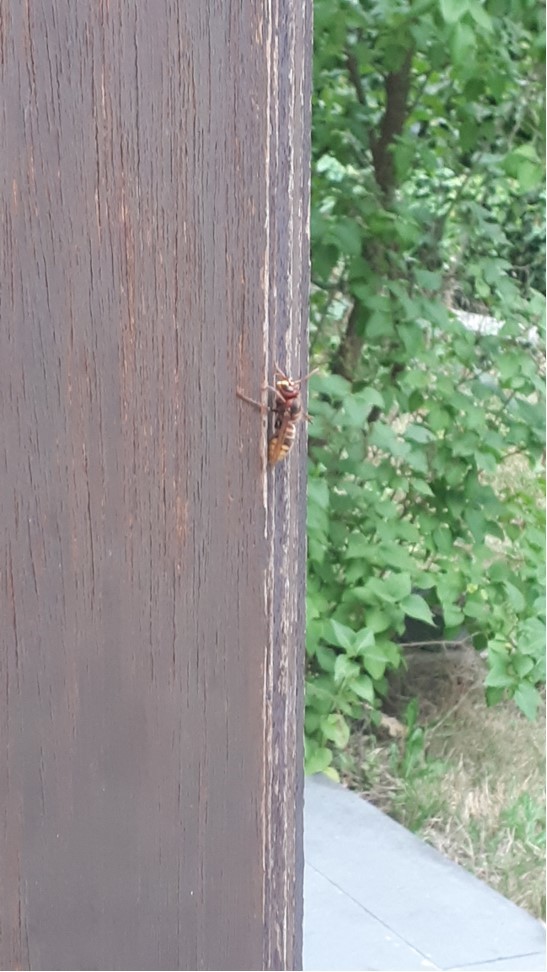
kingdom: Animalia
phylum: Arthropoda
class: Insecta
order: Hymenoptera
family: Vespidae
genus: Vespa
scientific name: Vespa crabro
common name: Hornet
